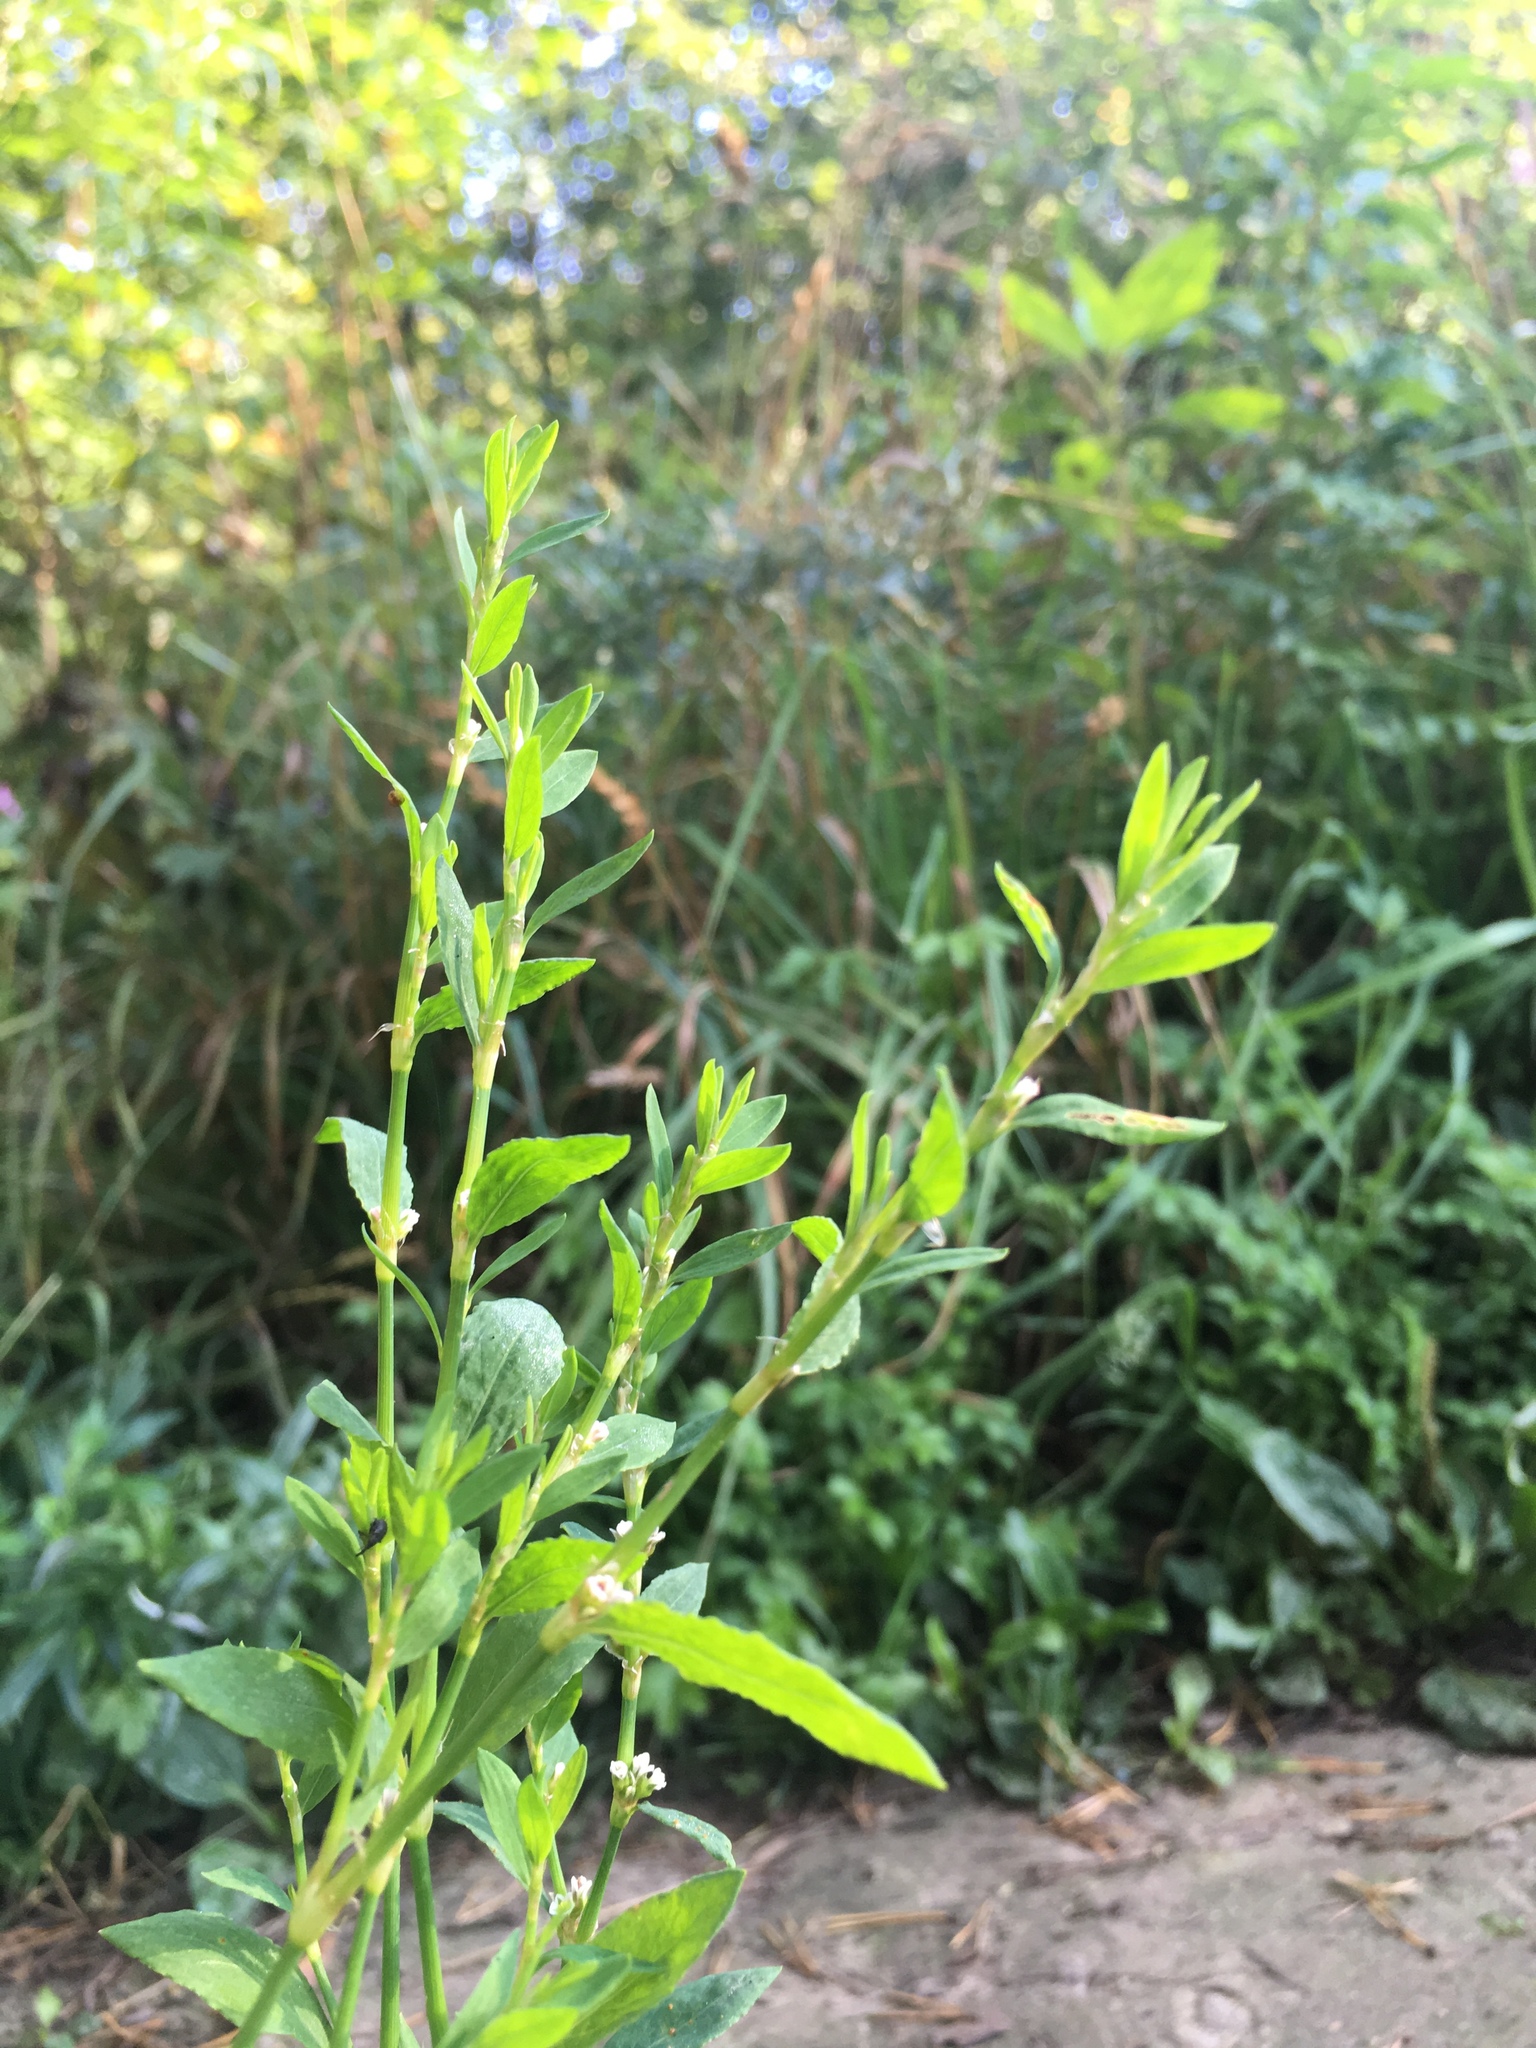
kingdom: Plantae
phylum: Tracheophyta
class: Magnoliopsida
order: Caryophyllales
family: Polygonaceae
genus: Polygonum
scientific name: Polygonum aviculare
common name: Prostrate knotweed
